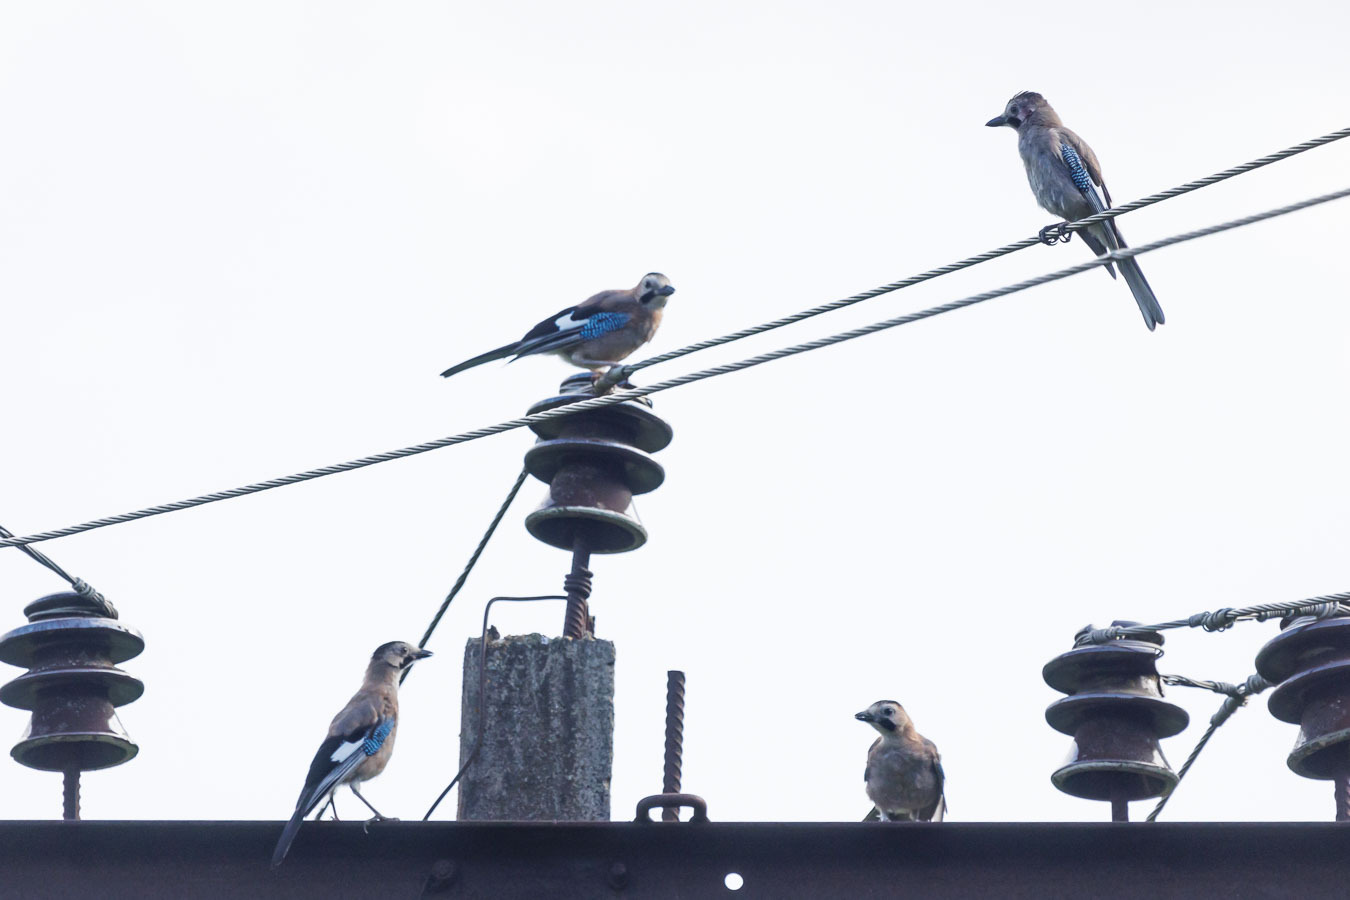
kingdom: Animalia
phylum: Chordata
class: Aves
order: Passeriformes
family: Corvidae
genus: Garrulus
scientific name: Garrulus glandarius
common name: Eurasian jay
